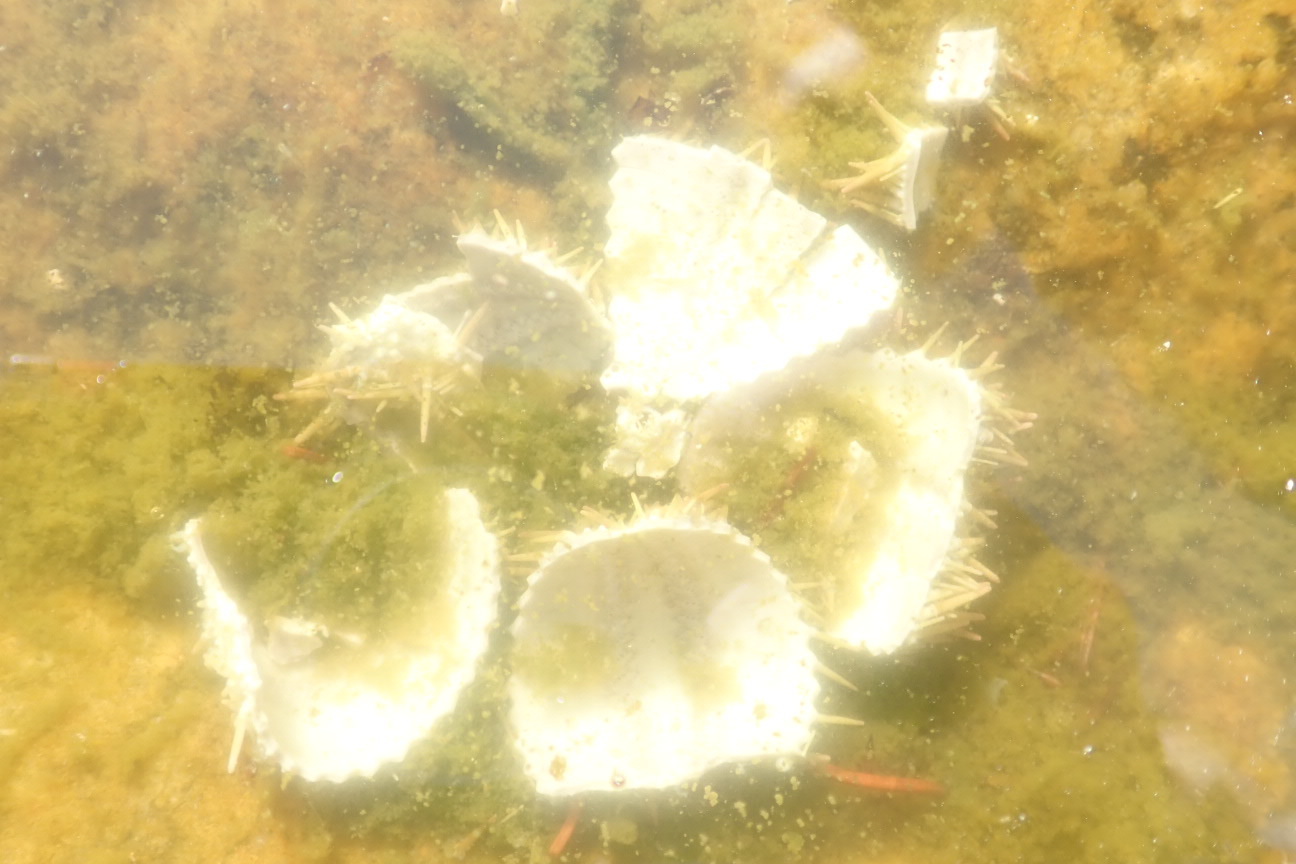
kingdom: Animalia
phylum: Echinodermata
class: Echinoidea
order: Camarodonta
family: Strongylocentrotidae
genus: Strongylocentrotus
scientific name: Strongylocentrotus droebachiensis
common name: Northern sea urchin
